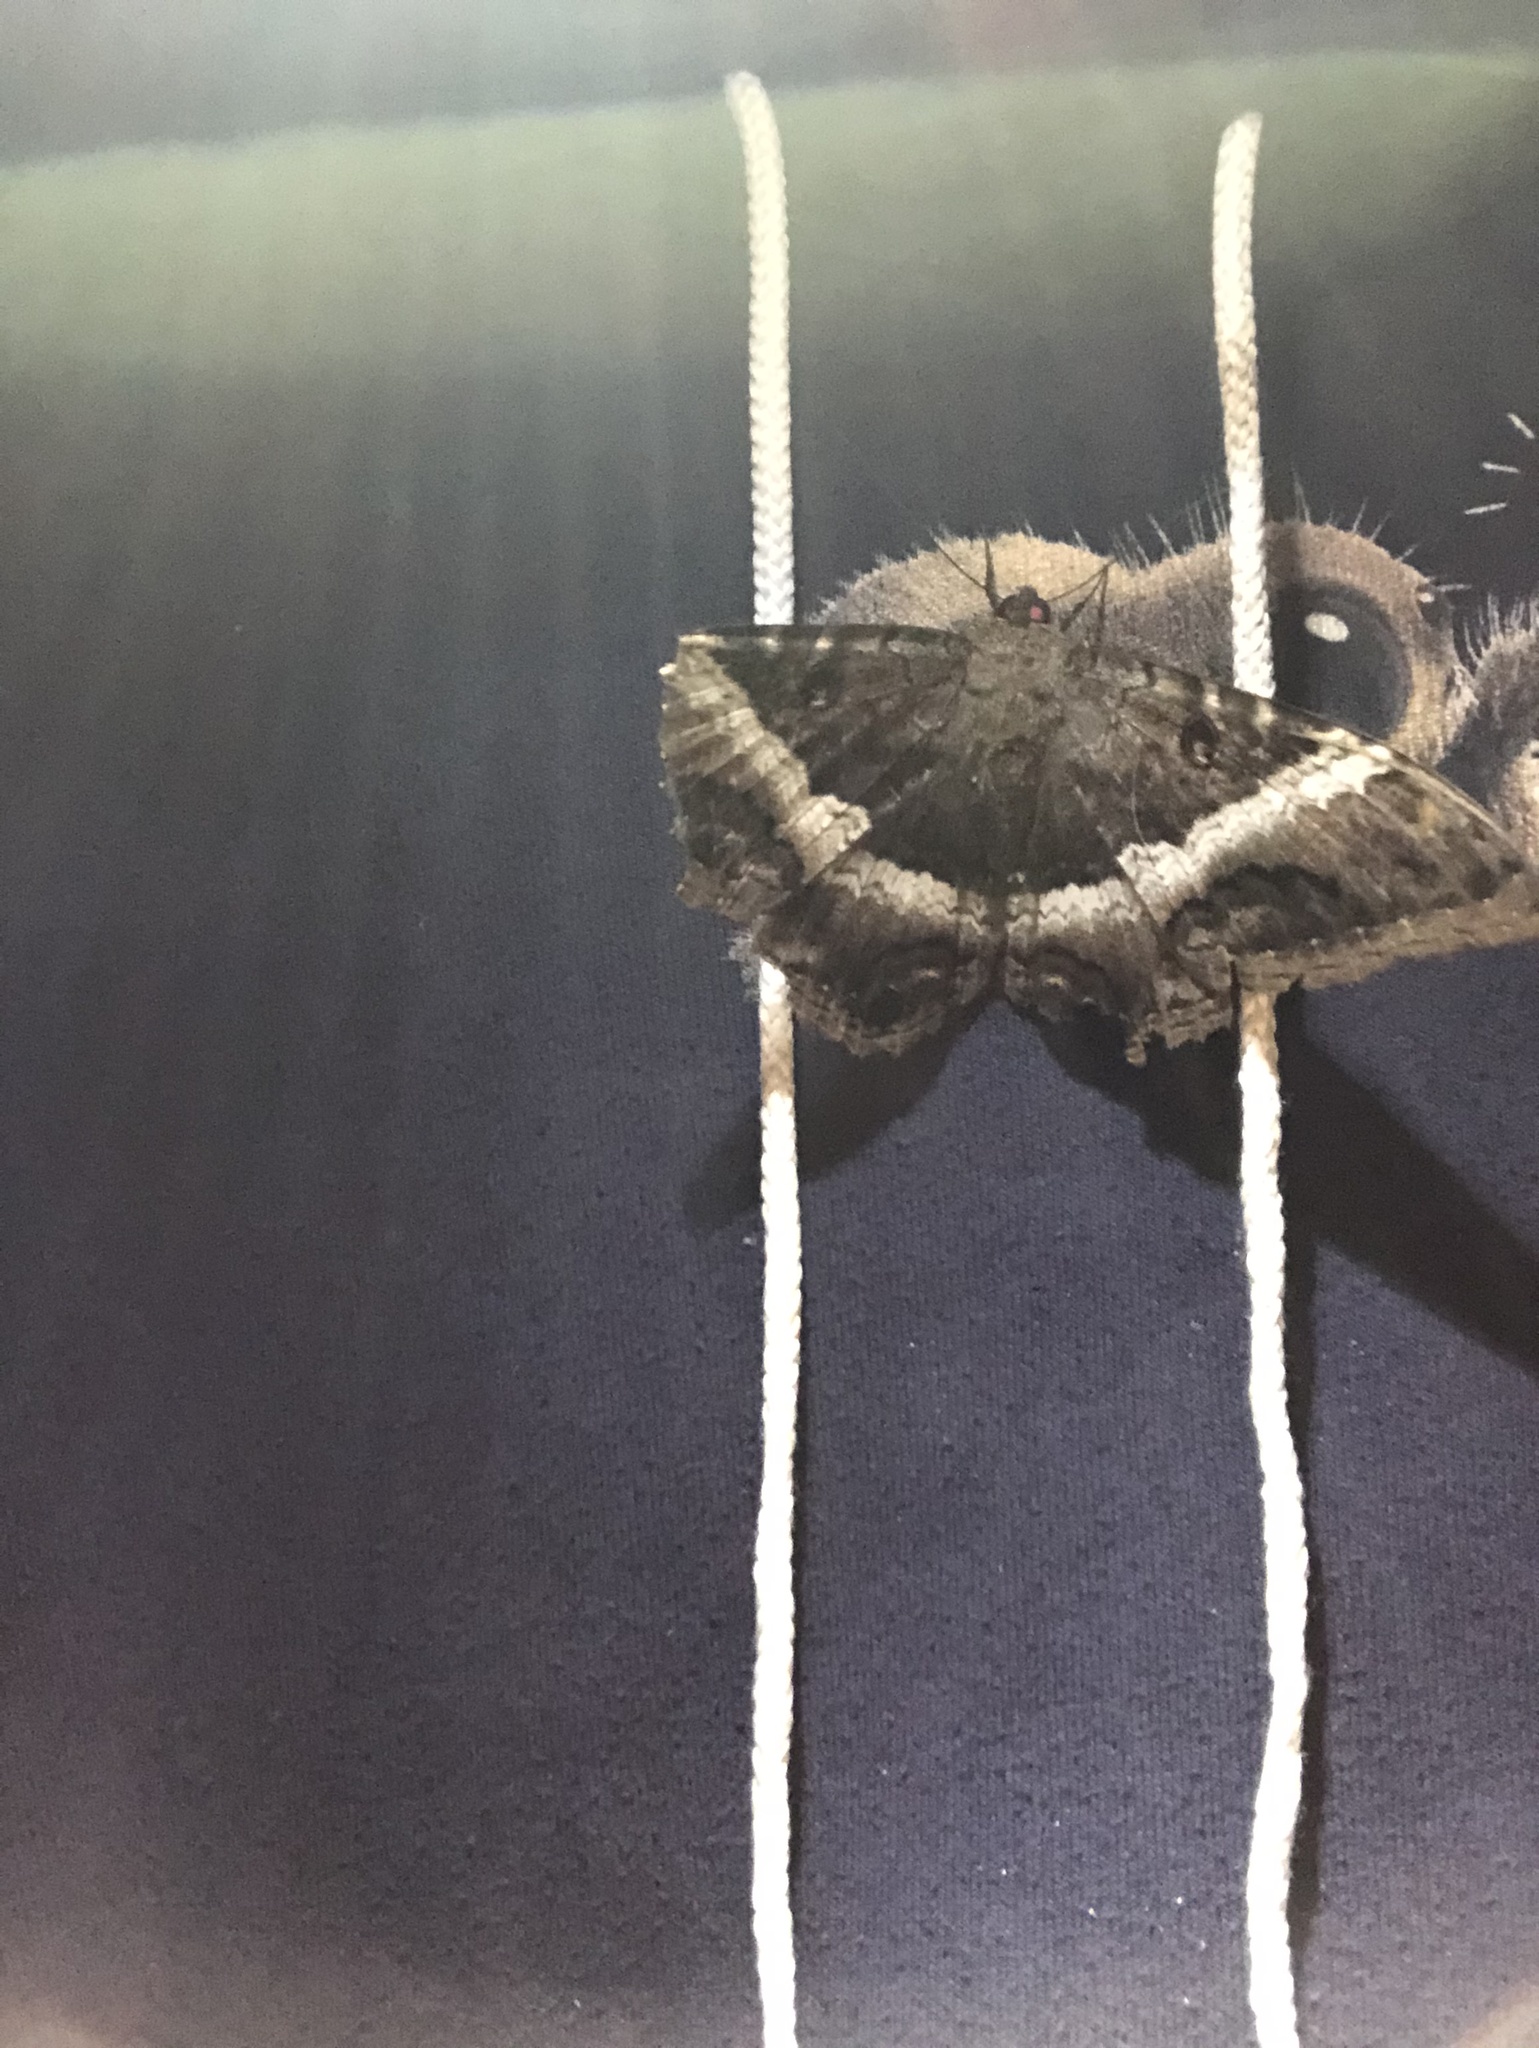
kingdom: Animalia
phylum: Arthropoda
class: Insecta
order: Lepidoptera
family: Erebidae
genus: Ascalapha
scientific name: Ascalapha odorata
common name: Black witch
